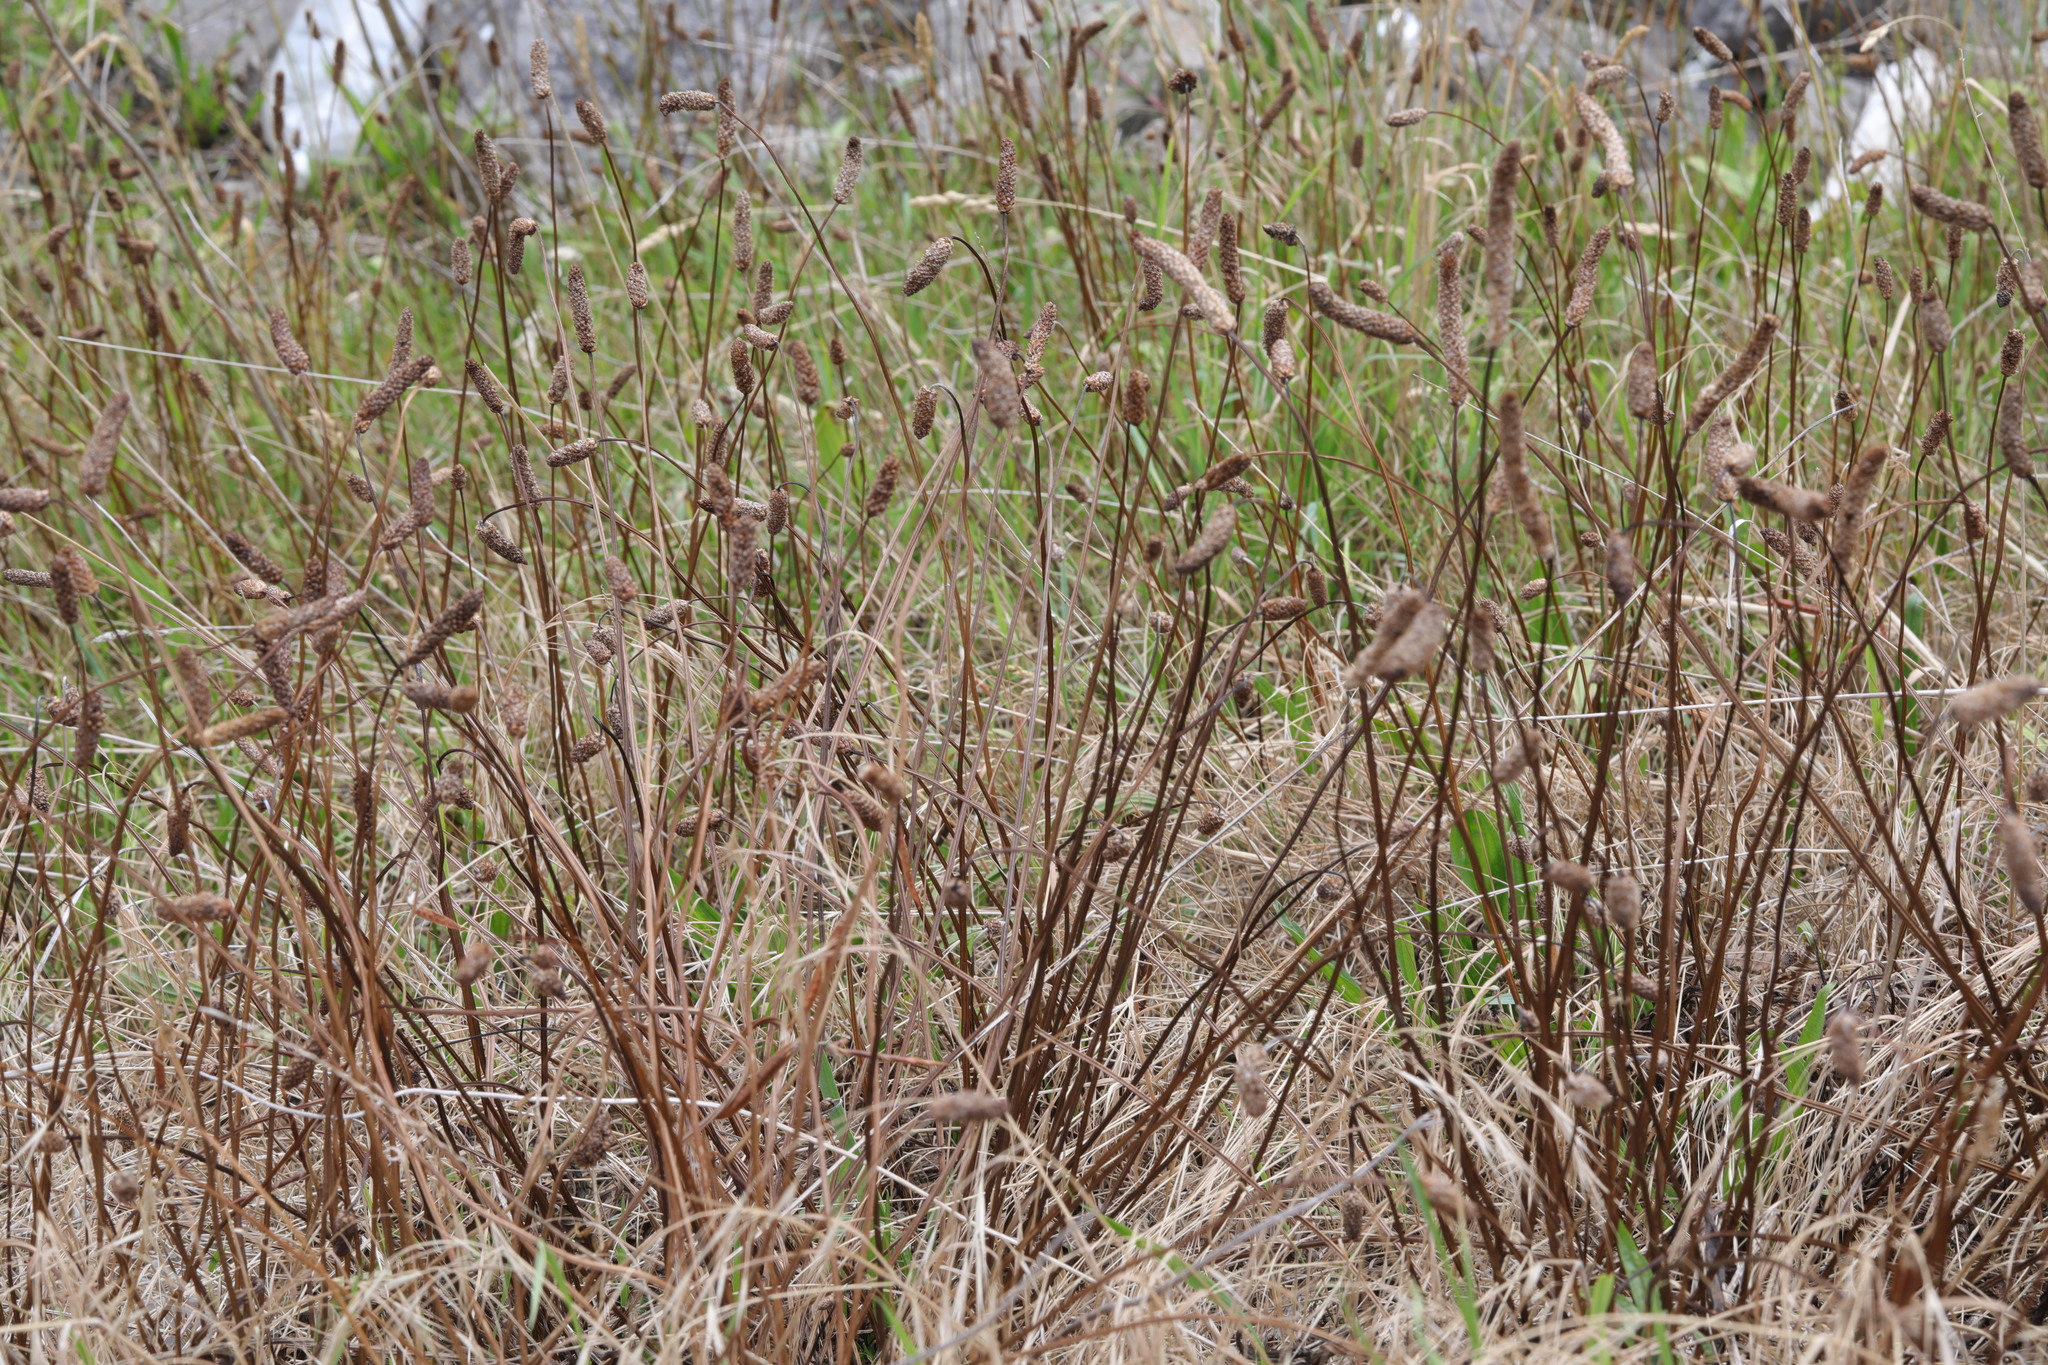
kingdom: Plantae
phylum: Tracheophyta
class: Magnoliopsida
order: Lamiales
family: Plantaginaceae
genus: Plantago
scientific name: Plantago lanceolata
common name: Ribwort plantain
